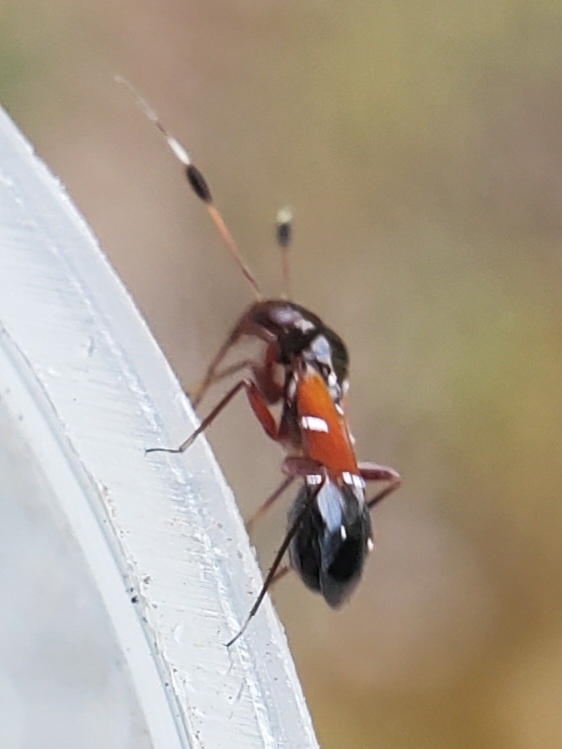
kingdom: Animalia
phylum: Arthropoda
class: Insecta
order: Hemiptera
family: Miridae
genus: Pilophorus
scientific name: Pilophorus laetus
